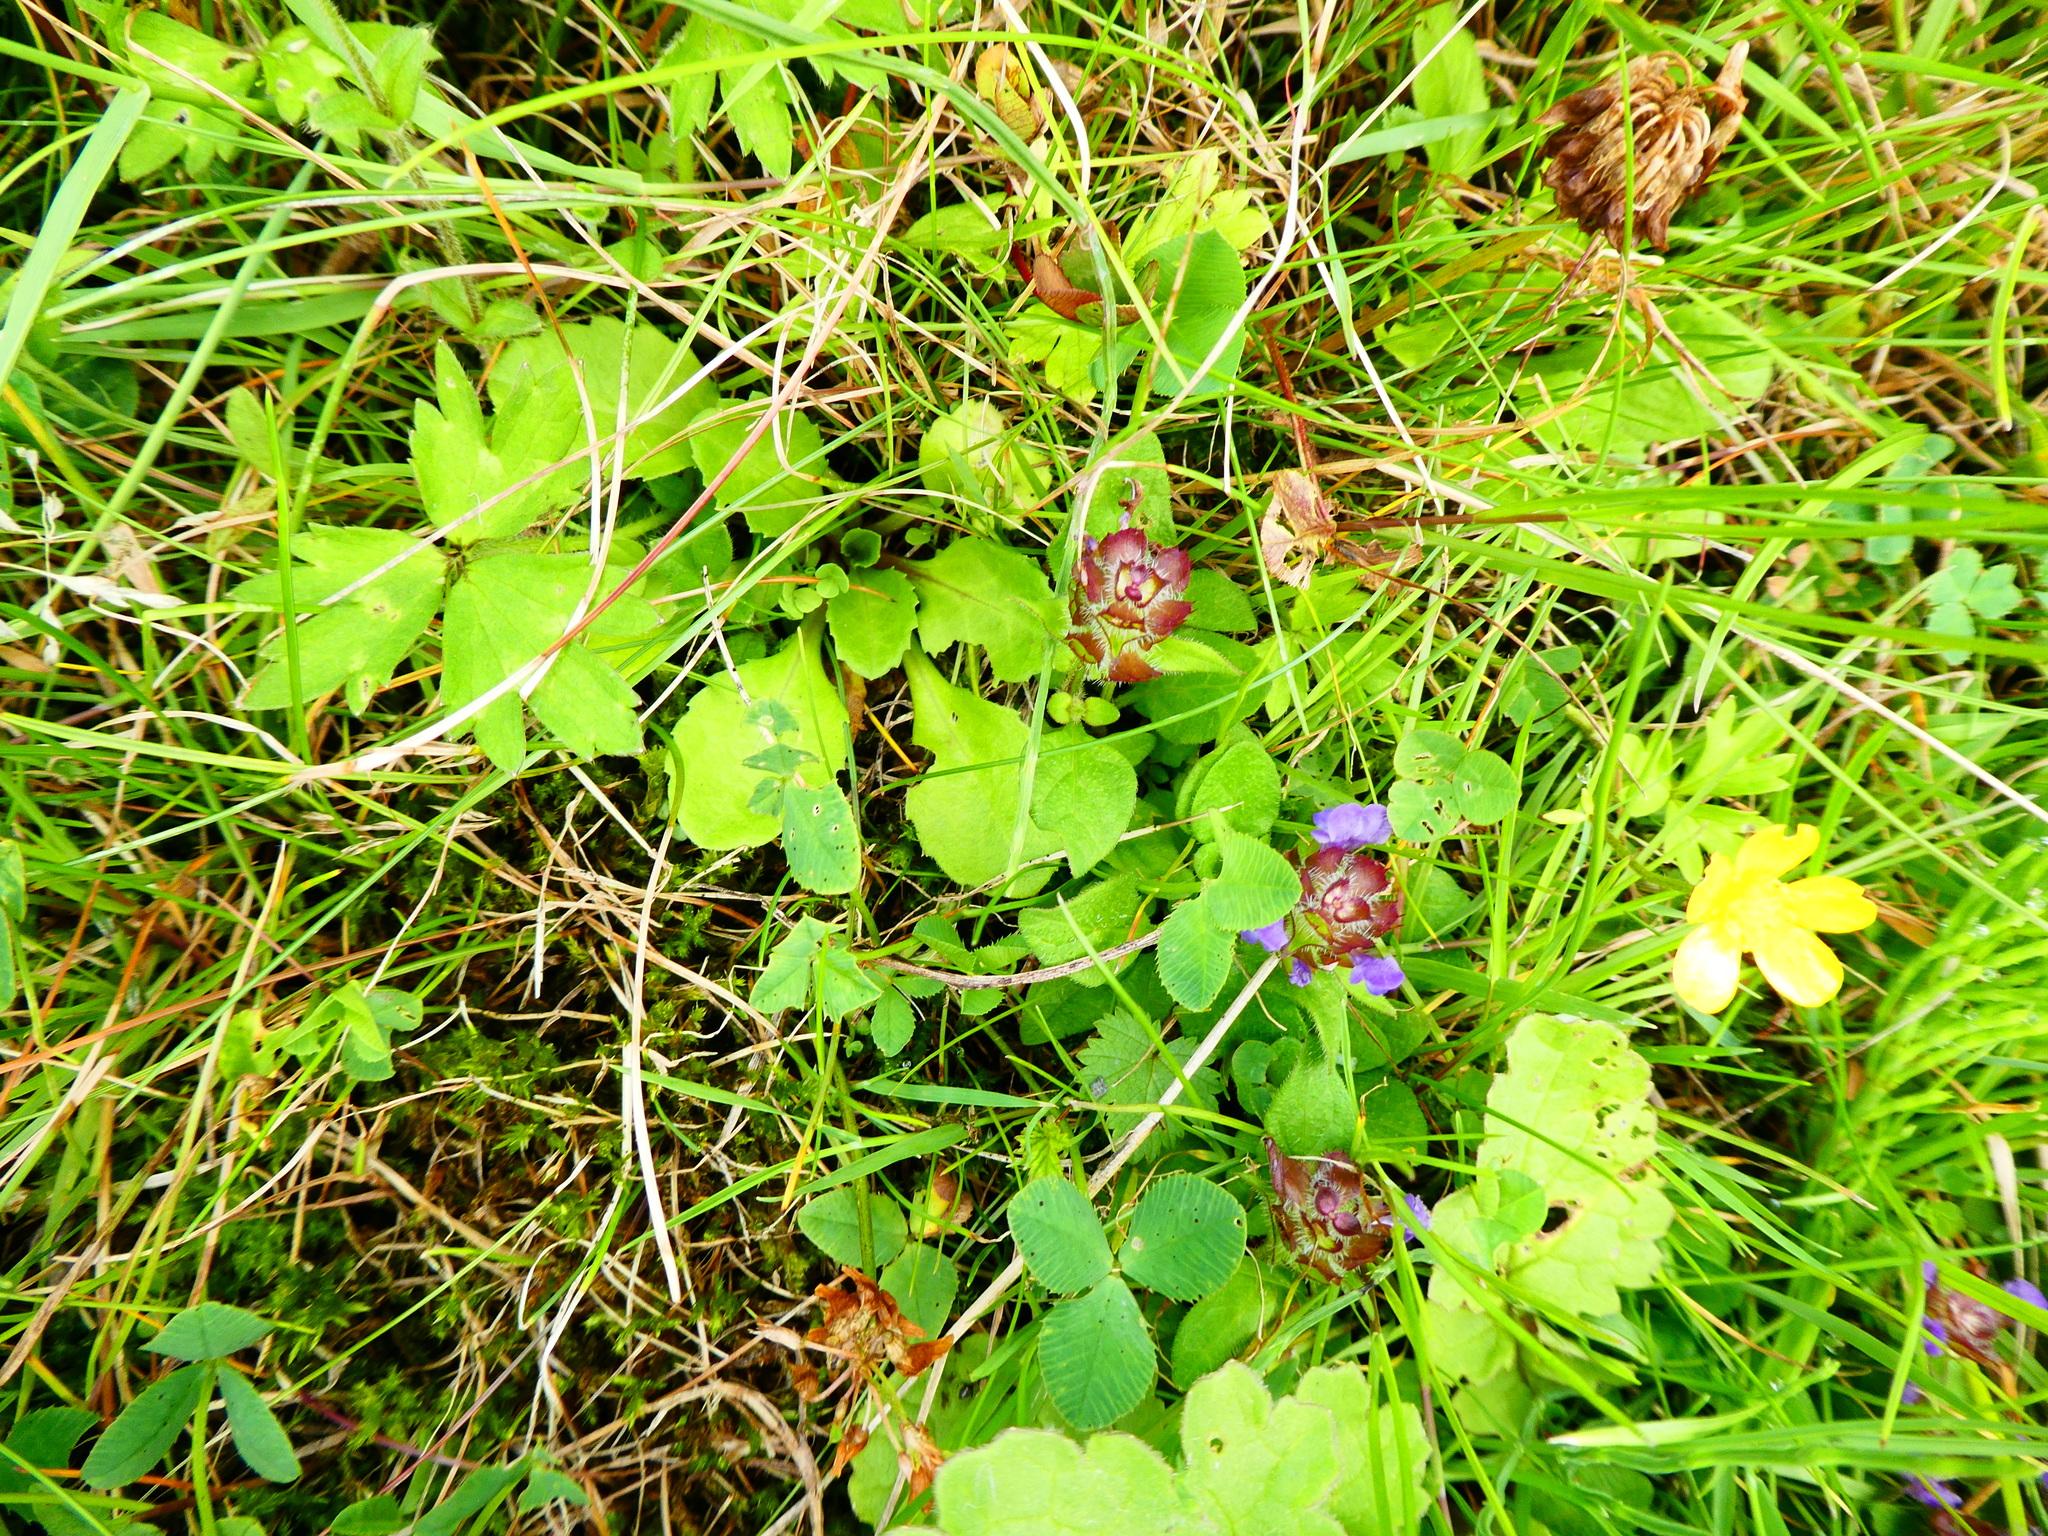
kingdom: Plantae
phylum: Tracheophyta
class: Magnoliopsida
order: Lamiales
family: Lamiaceae
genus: Prunella
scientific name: Prunella vulgaris
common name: Heal-all
